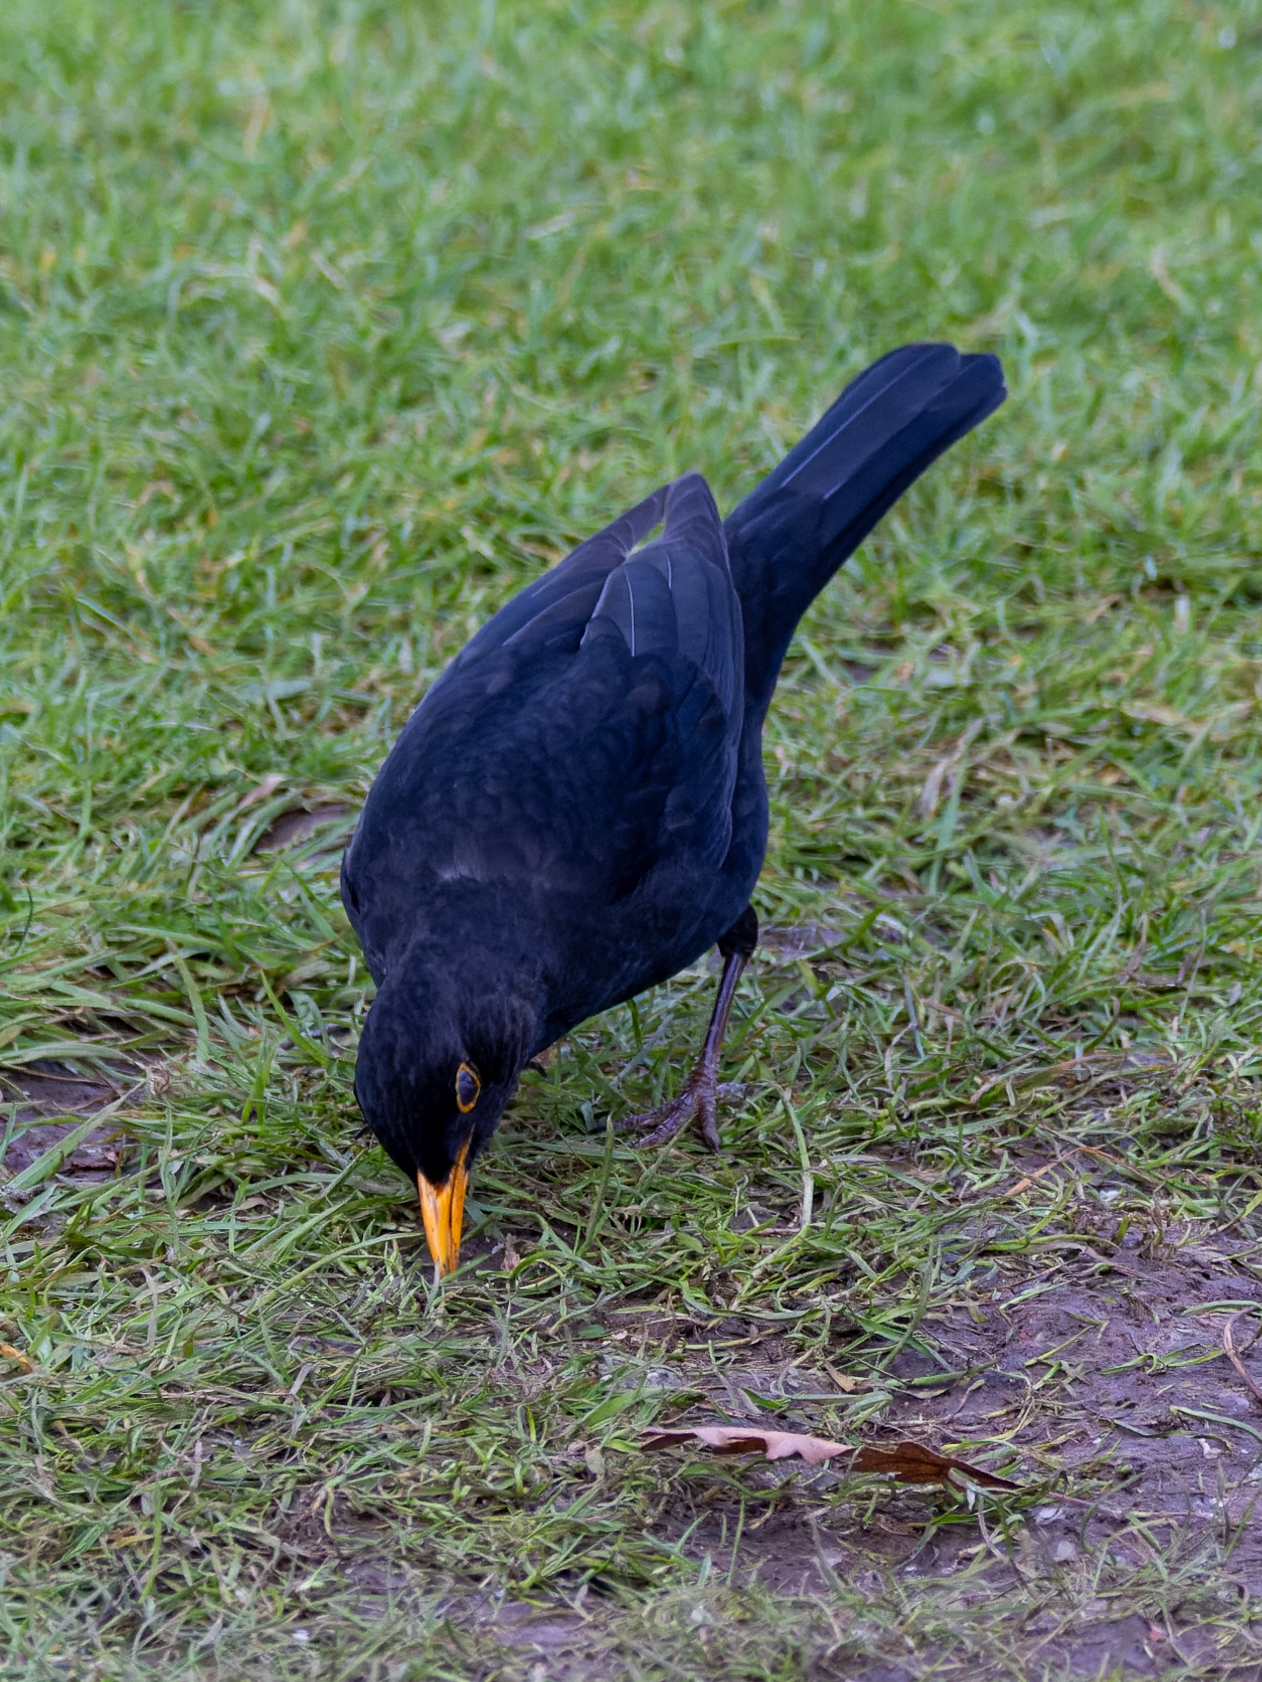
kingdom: Animalia
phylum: Chordata
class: Aves
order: Passeriformes
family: Turdidae
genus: Turdus
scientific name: Turdus merula
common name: Common blackbird
